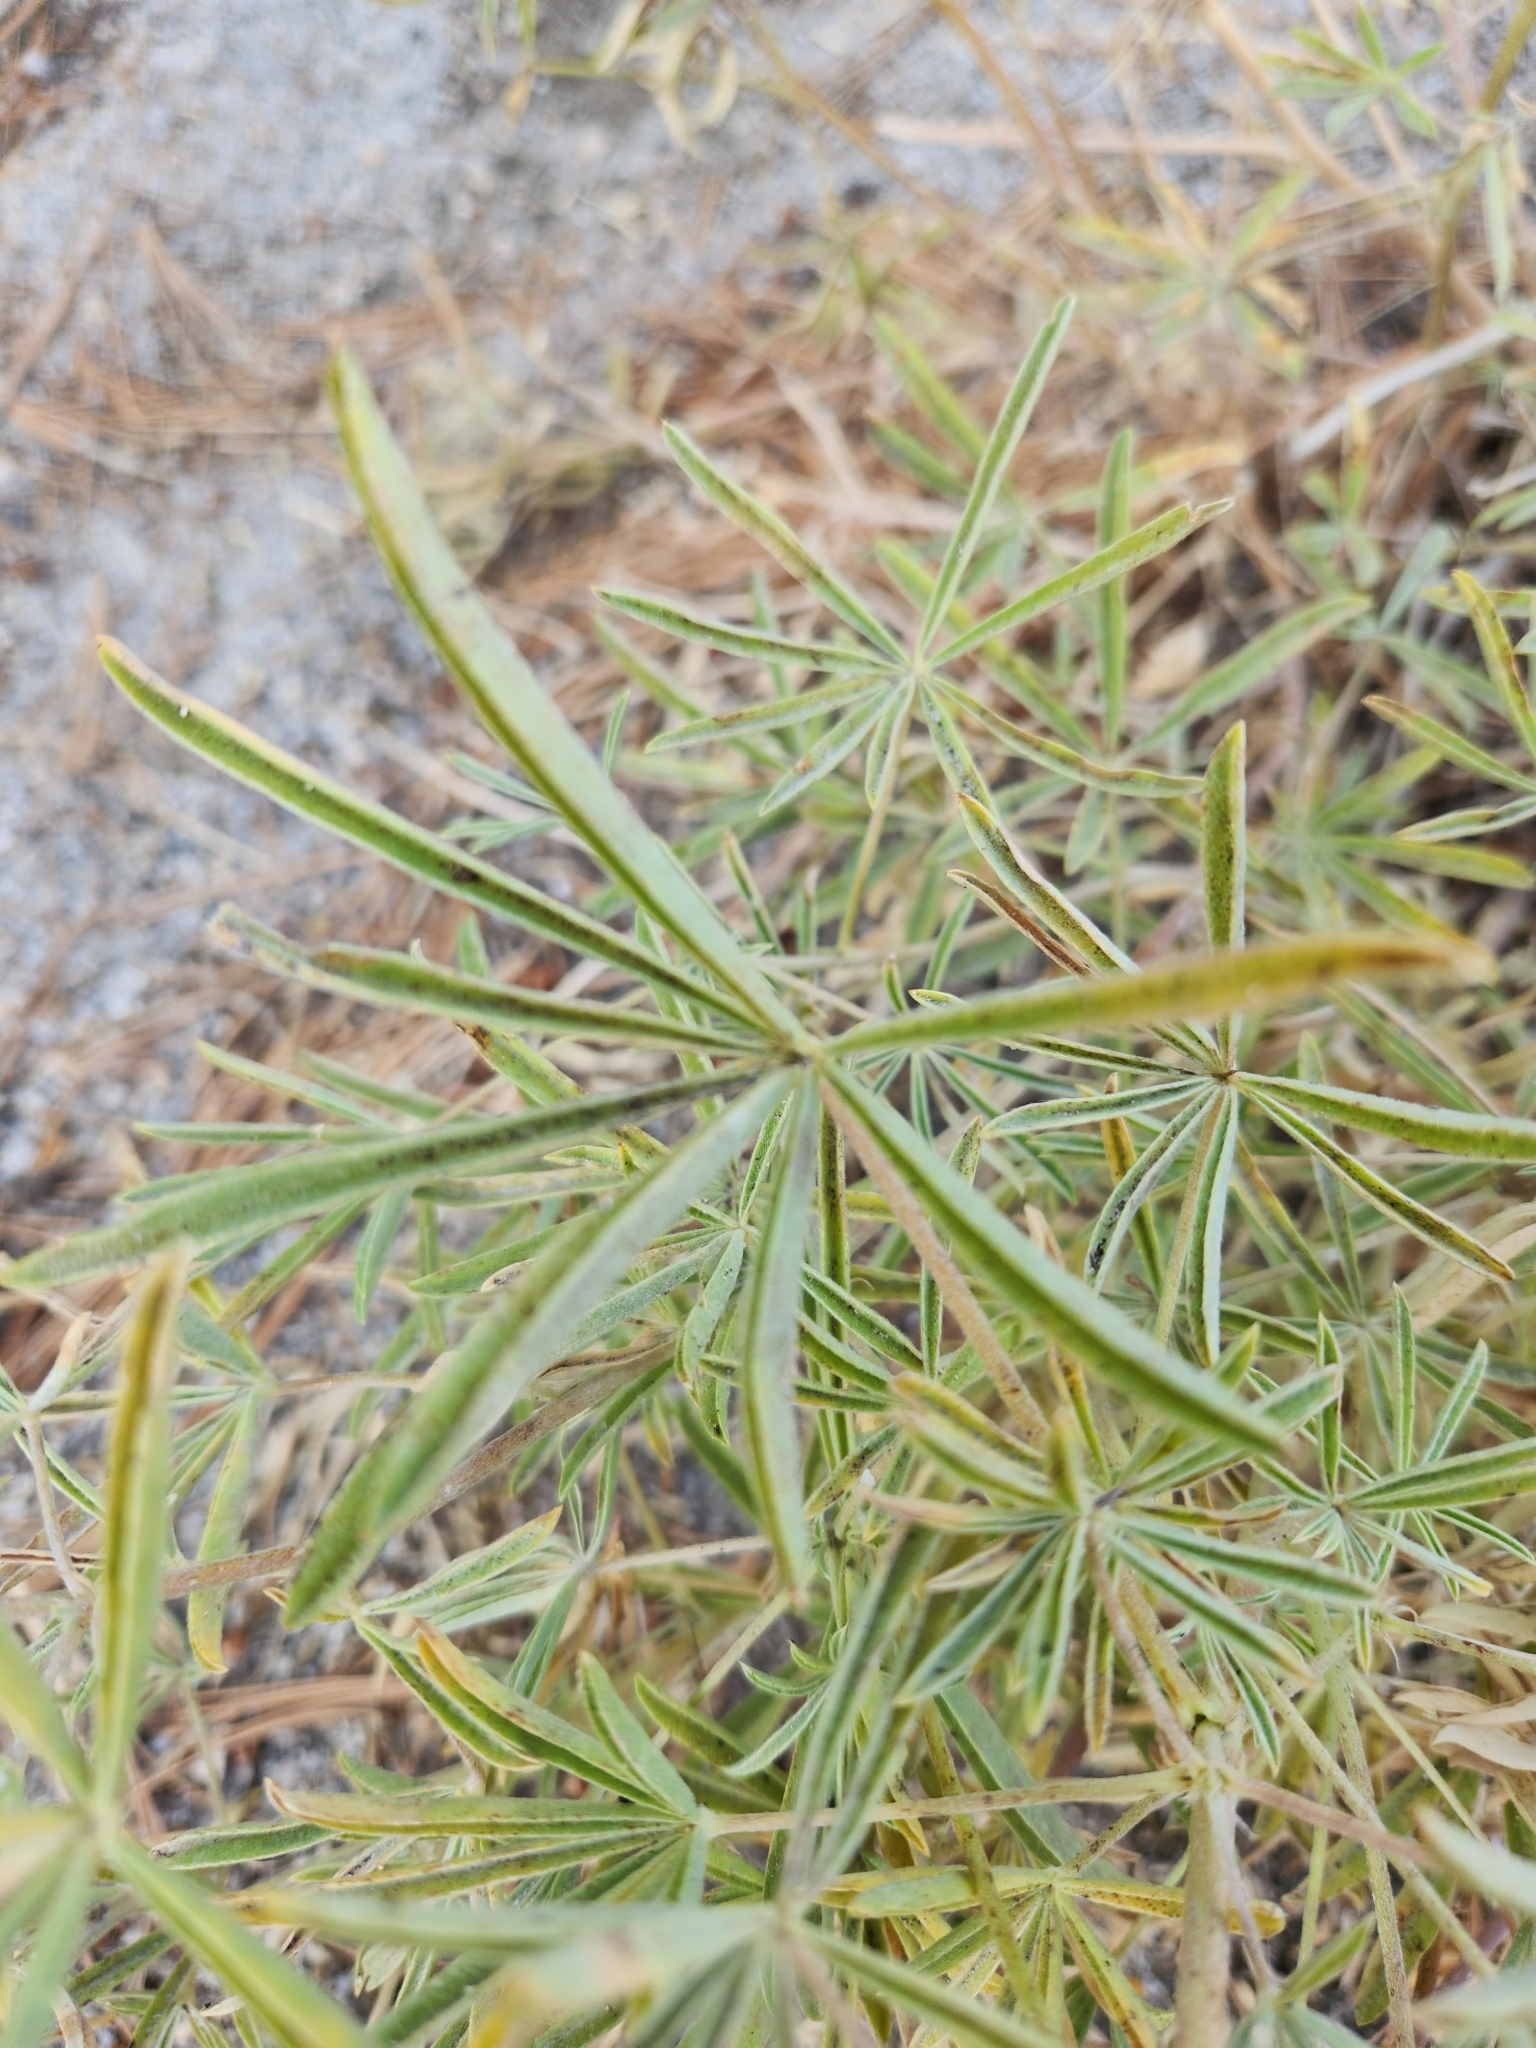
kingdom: Plantae
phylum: Tracheophyta
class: Magnoliopsida
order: Fabales
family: Fabaceae
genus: Lupinus
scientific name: Lupinus hyacinthinus
